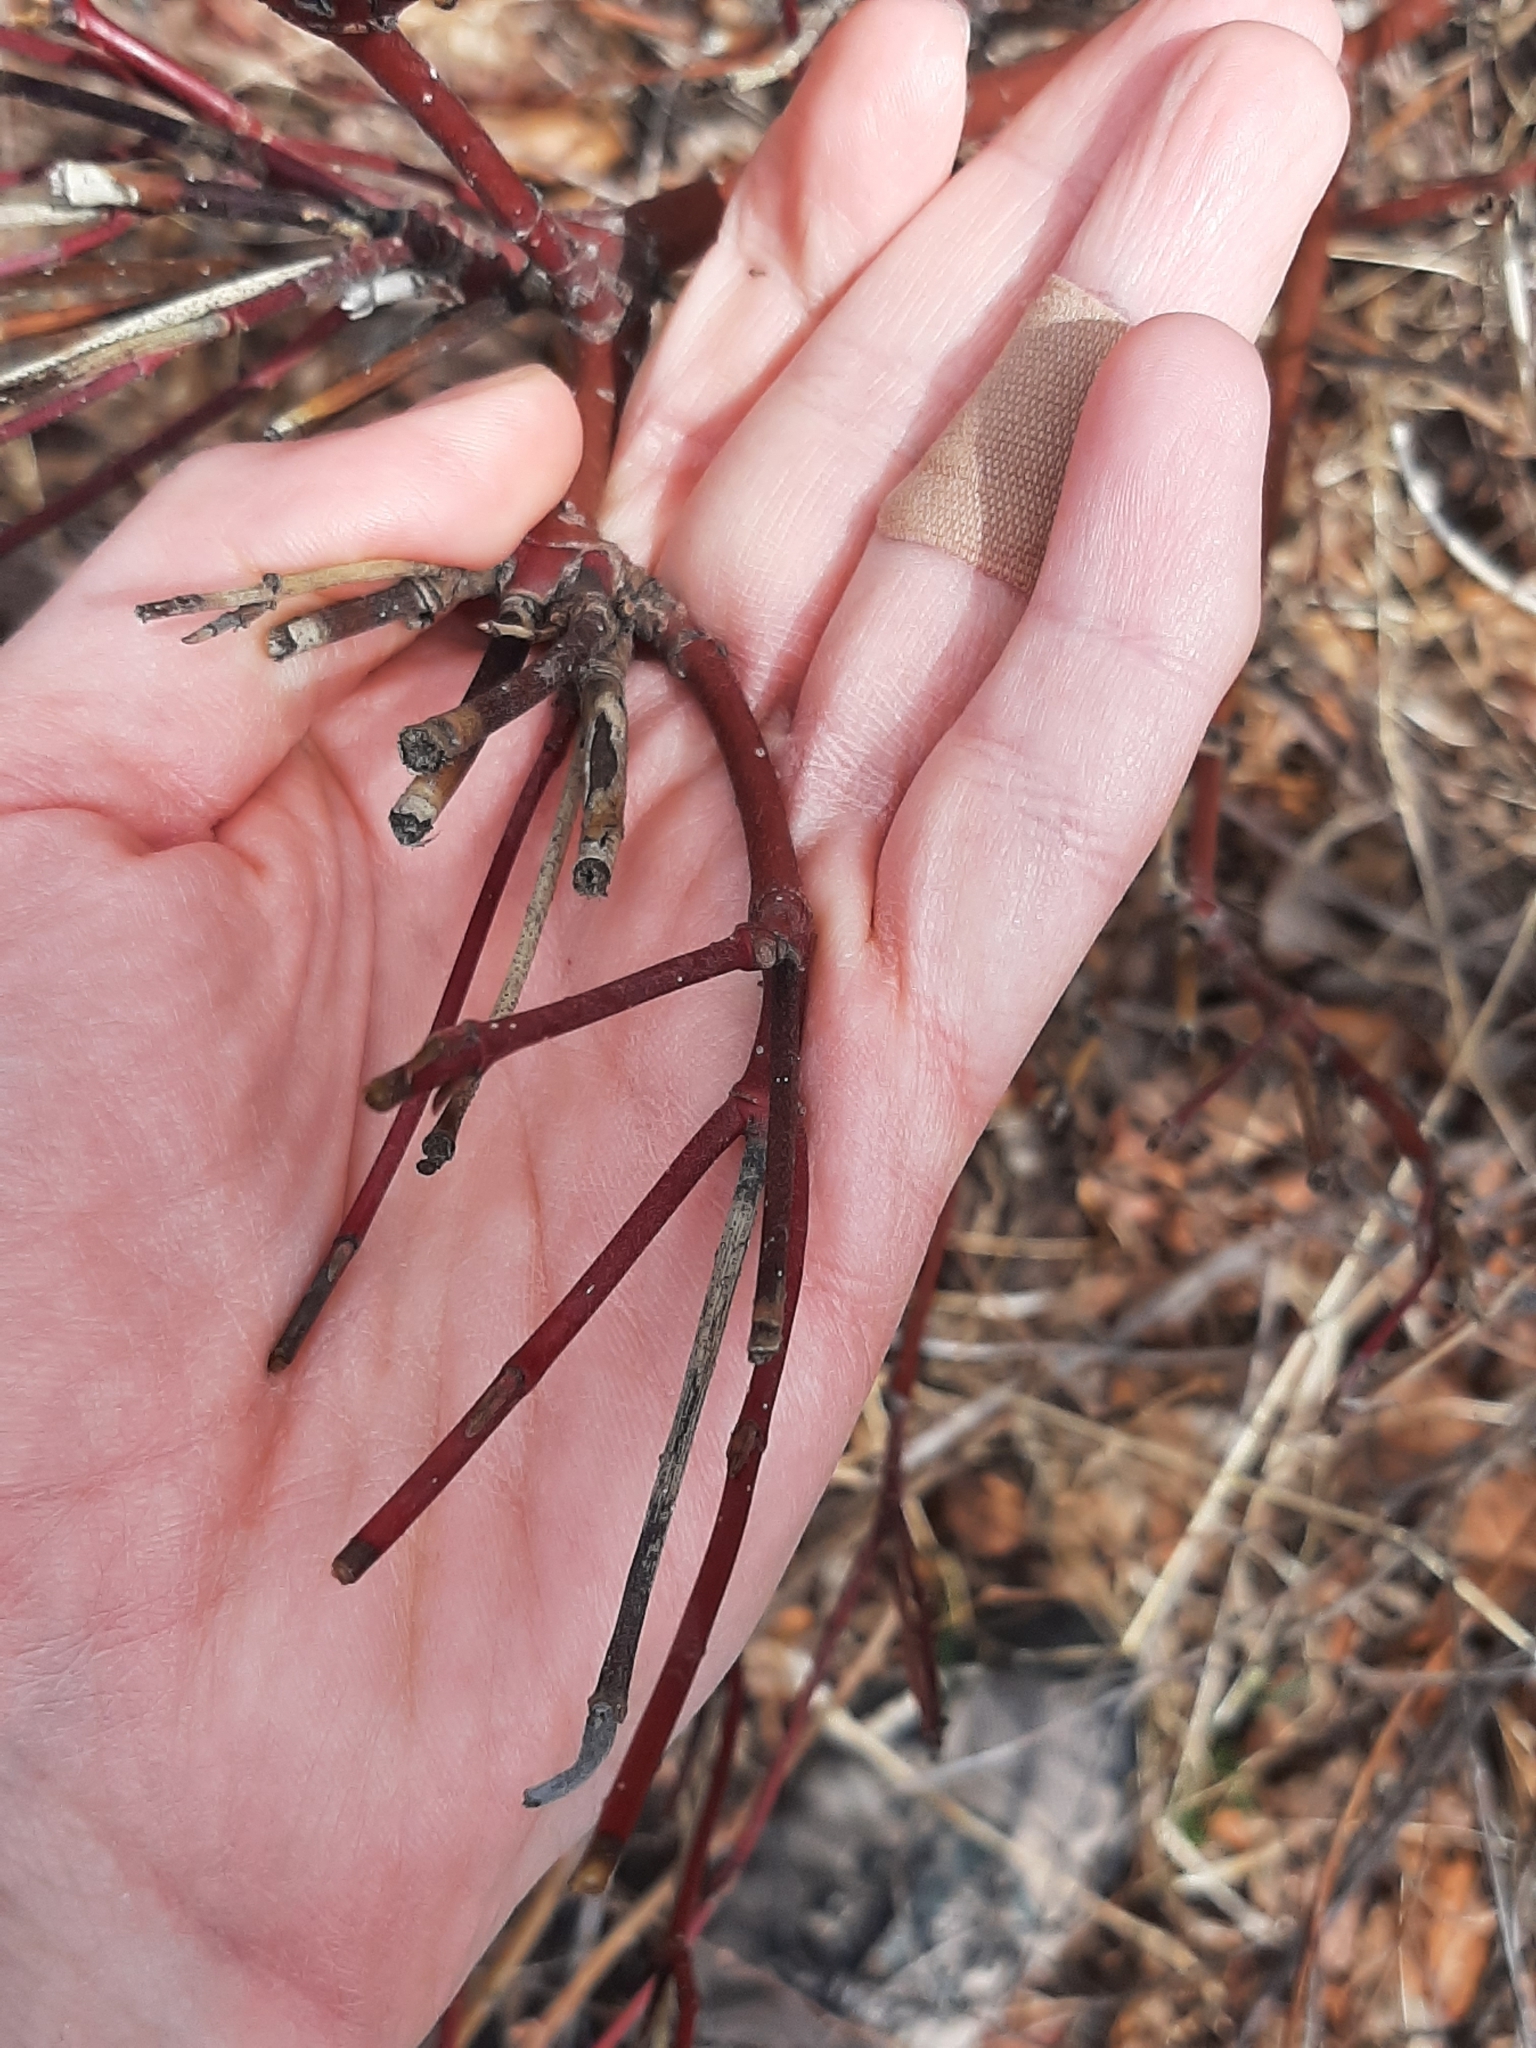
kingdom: Plantae
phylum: Tracheophyta
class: Magnoliopsida
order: Cornales
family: Cornaceae
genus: Cornus
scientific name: Cornus sericea
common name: Red-osier dogwood
